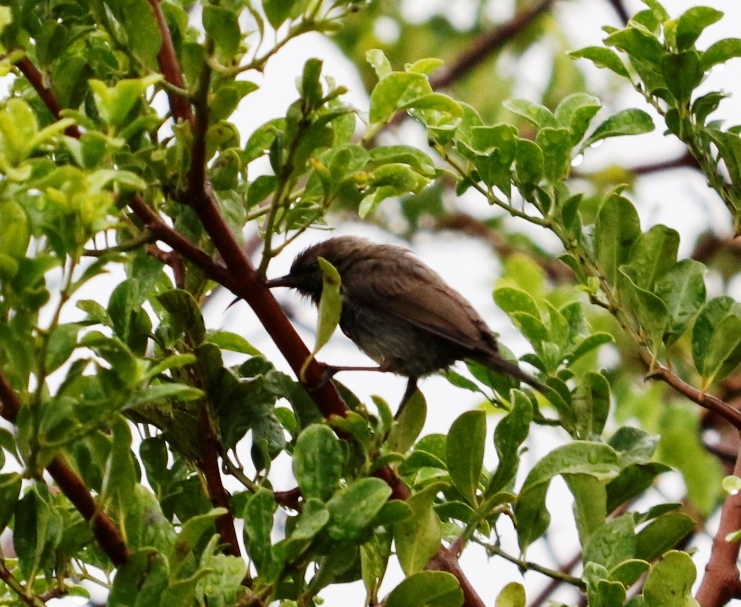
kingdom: Animalia
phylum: Chordata
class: Aves
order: Passeriformes
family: Dicruridae
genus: Dicrurus
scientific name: Dicrurus adsimilis
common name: Fork-tailed drongo
